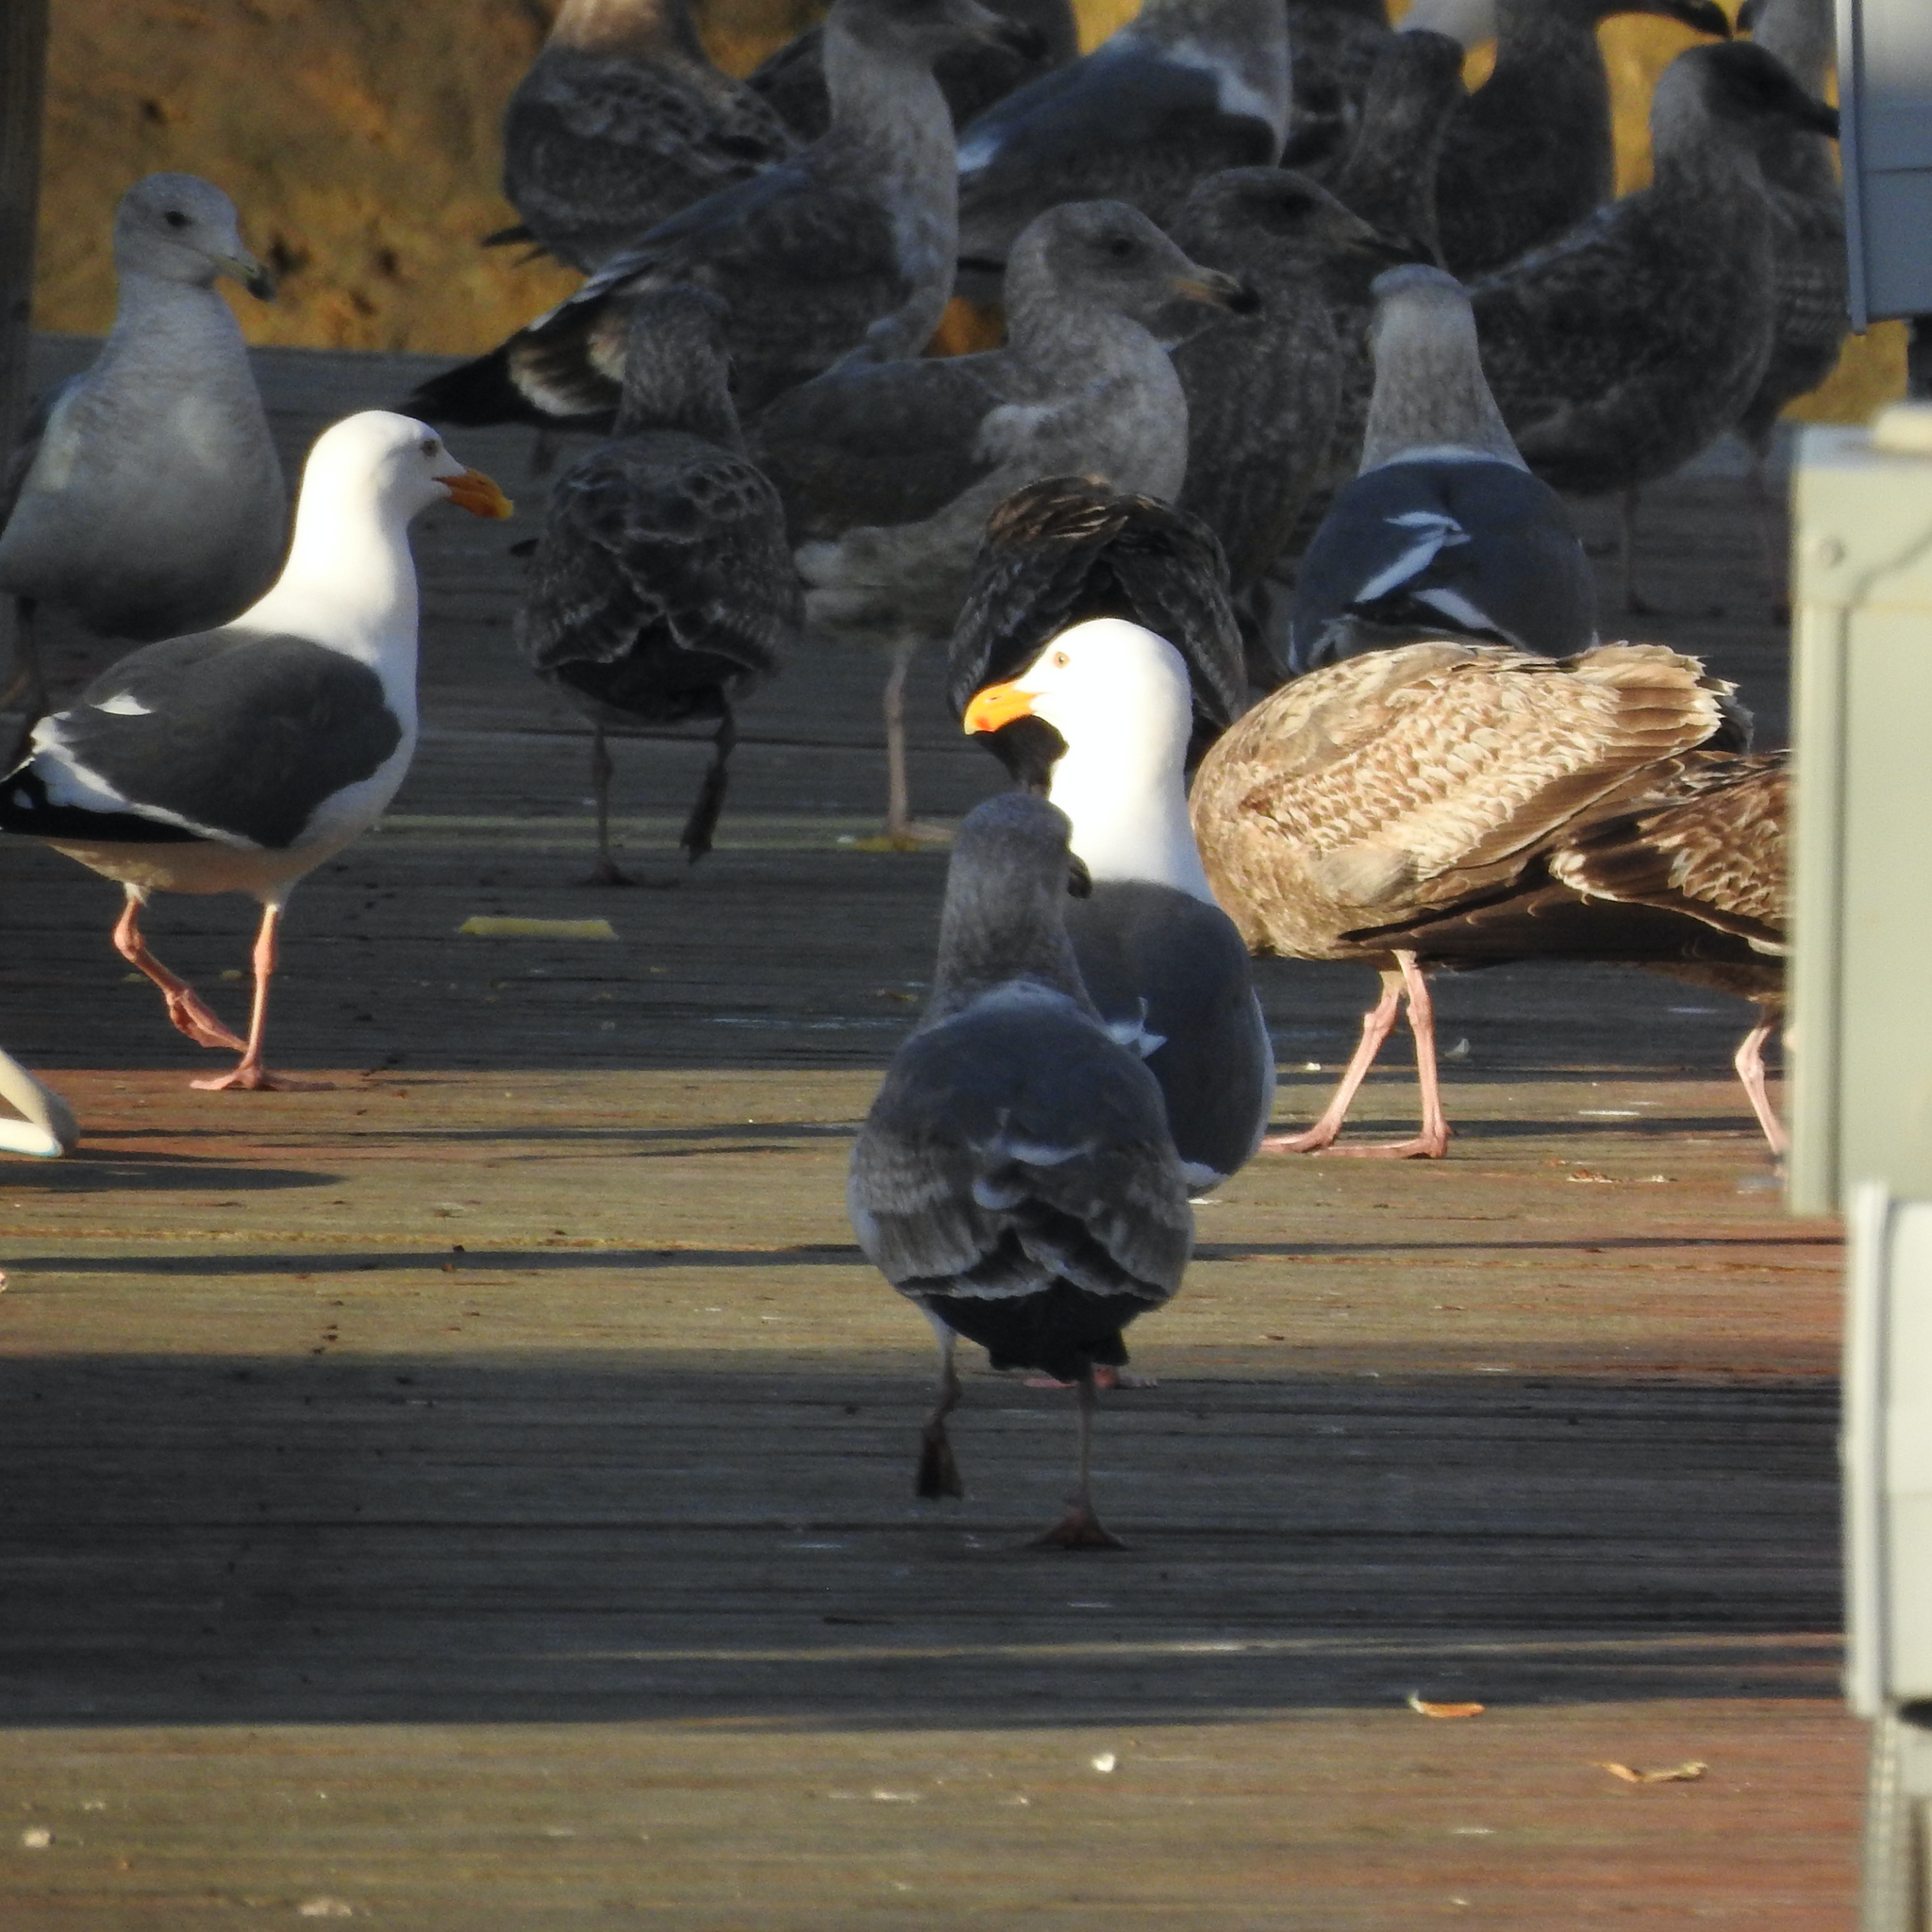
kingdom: Animalia
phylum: Chordata
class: Aves
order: Charadriiformes
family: Laridae
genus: Larus
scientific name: Larus occidentalis
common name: Western gull
